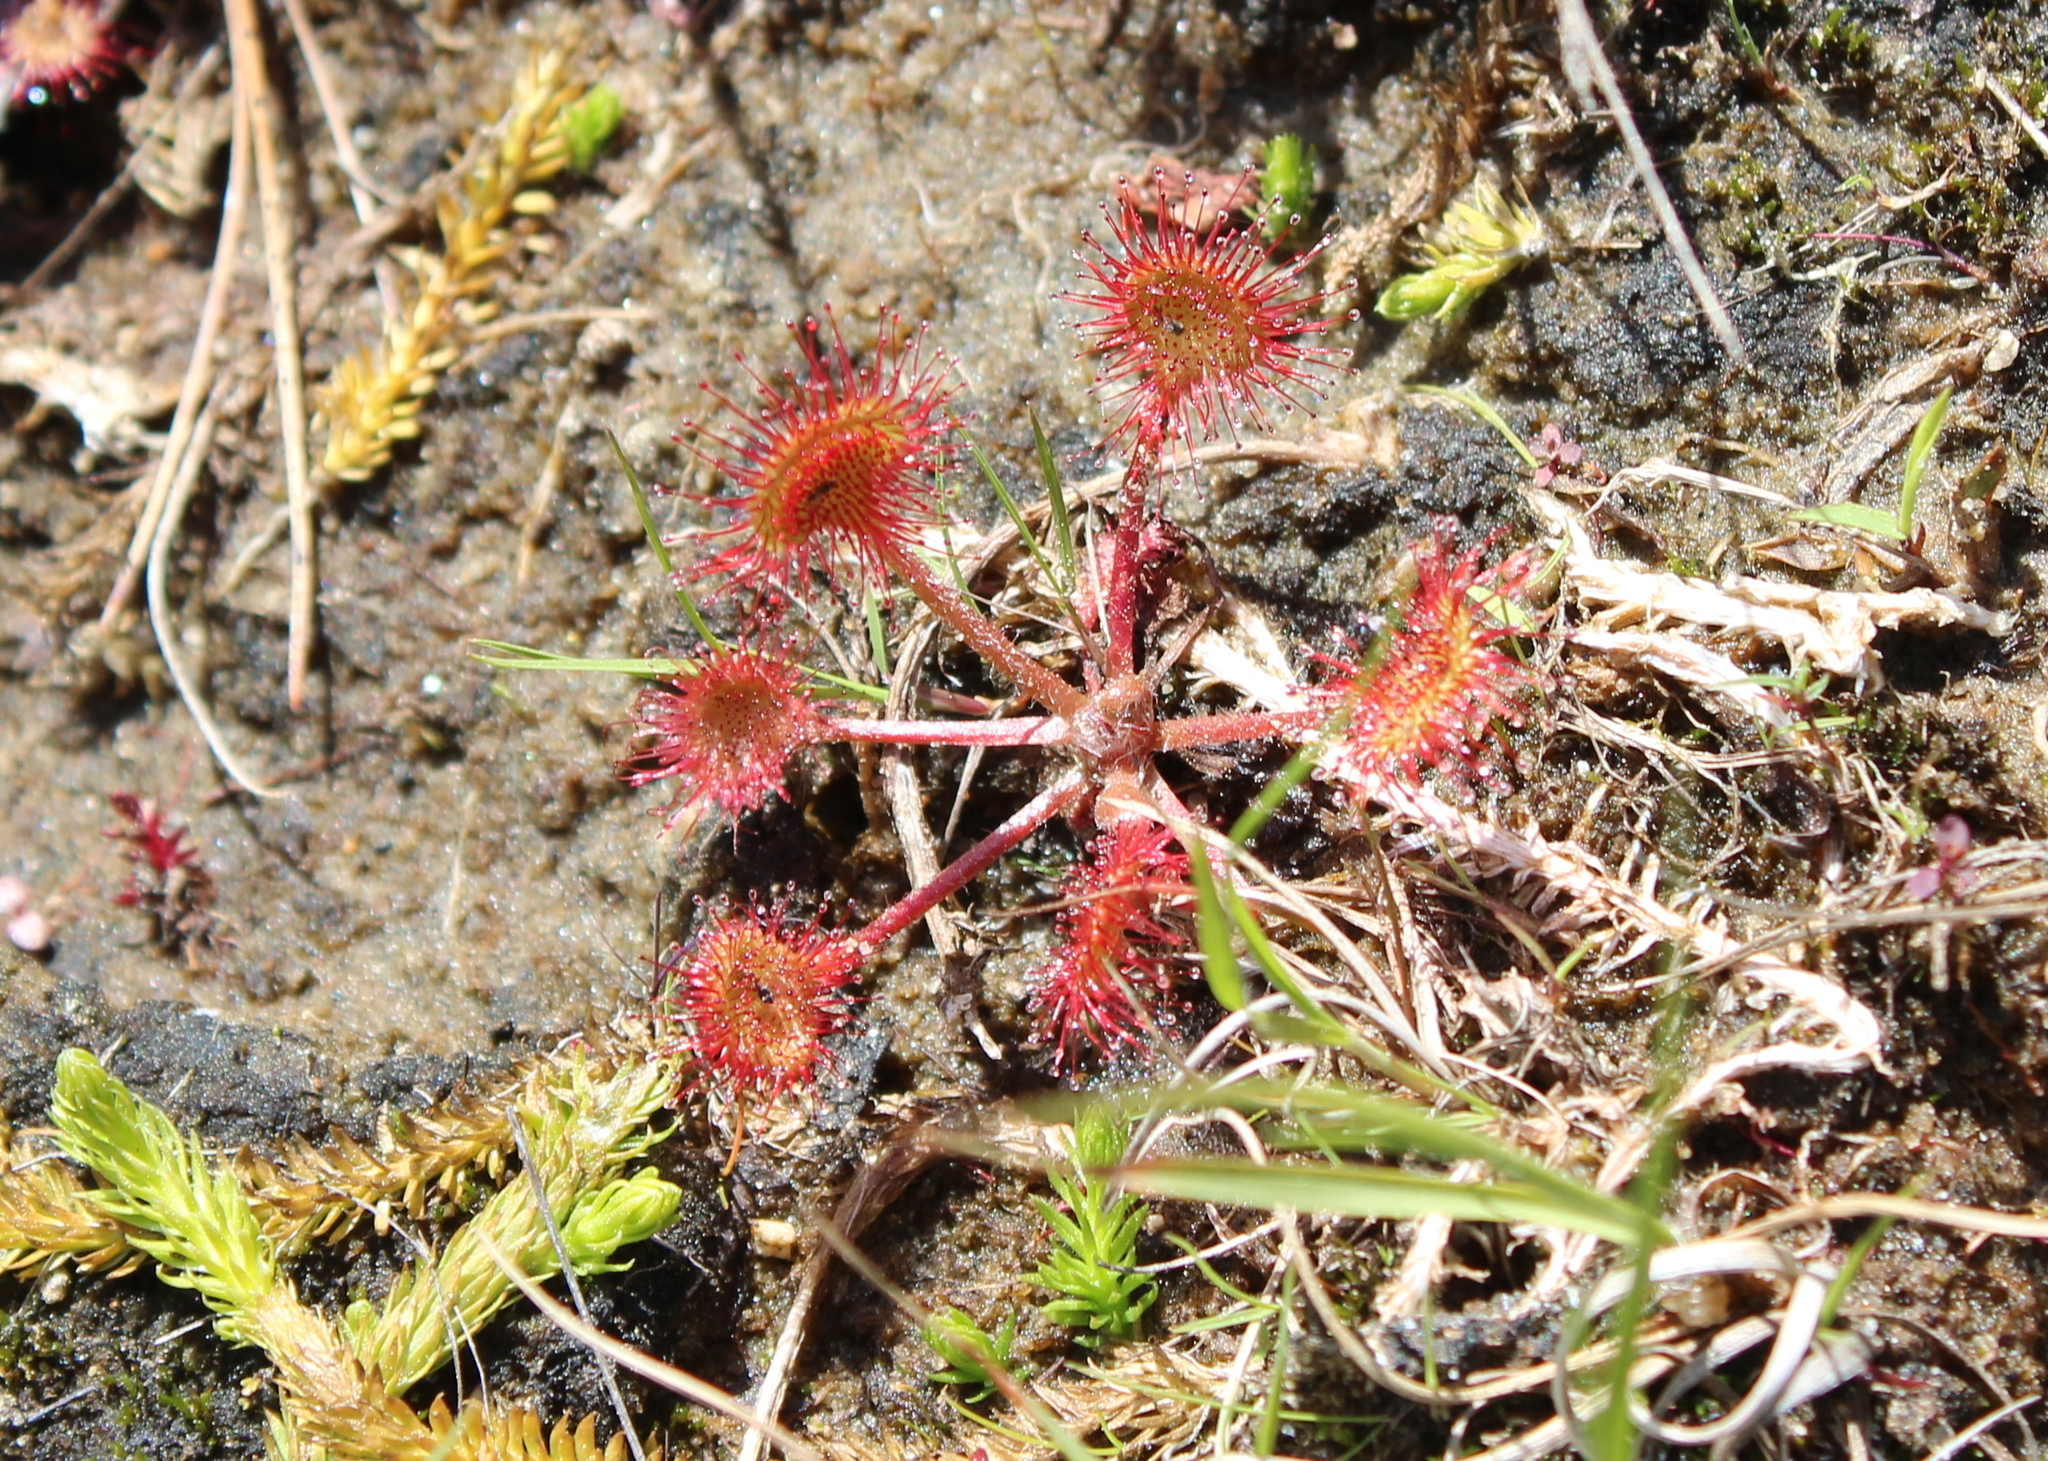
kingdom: Plantae
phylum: Tracheophyta
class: Magnoliopsida
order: Caryophyllales
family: Droseraceae
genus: Drosera
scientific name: Drosera rotundifolia
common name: Round-leaved sundew
